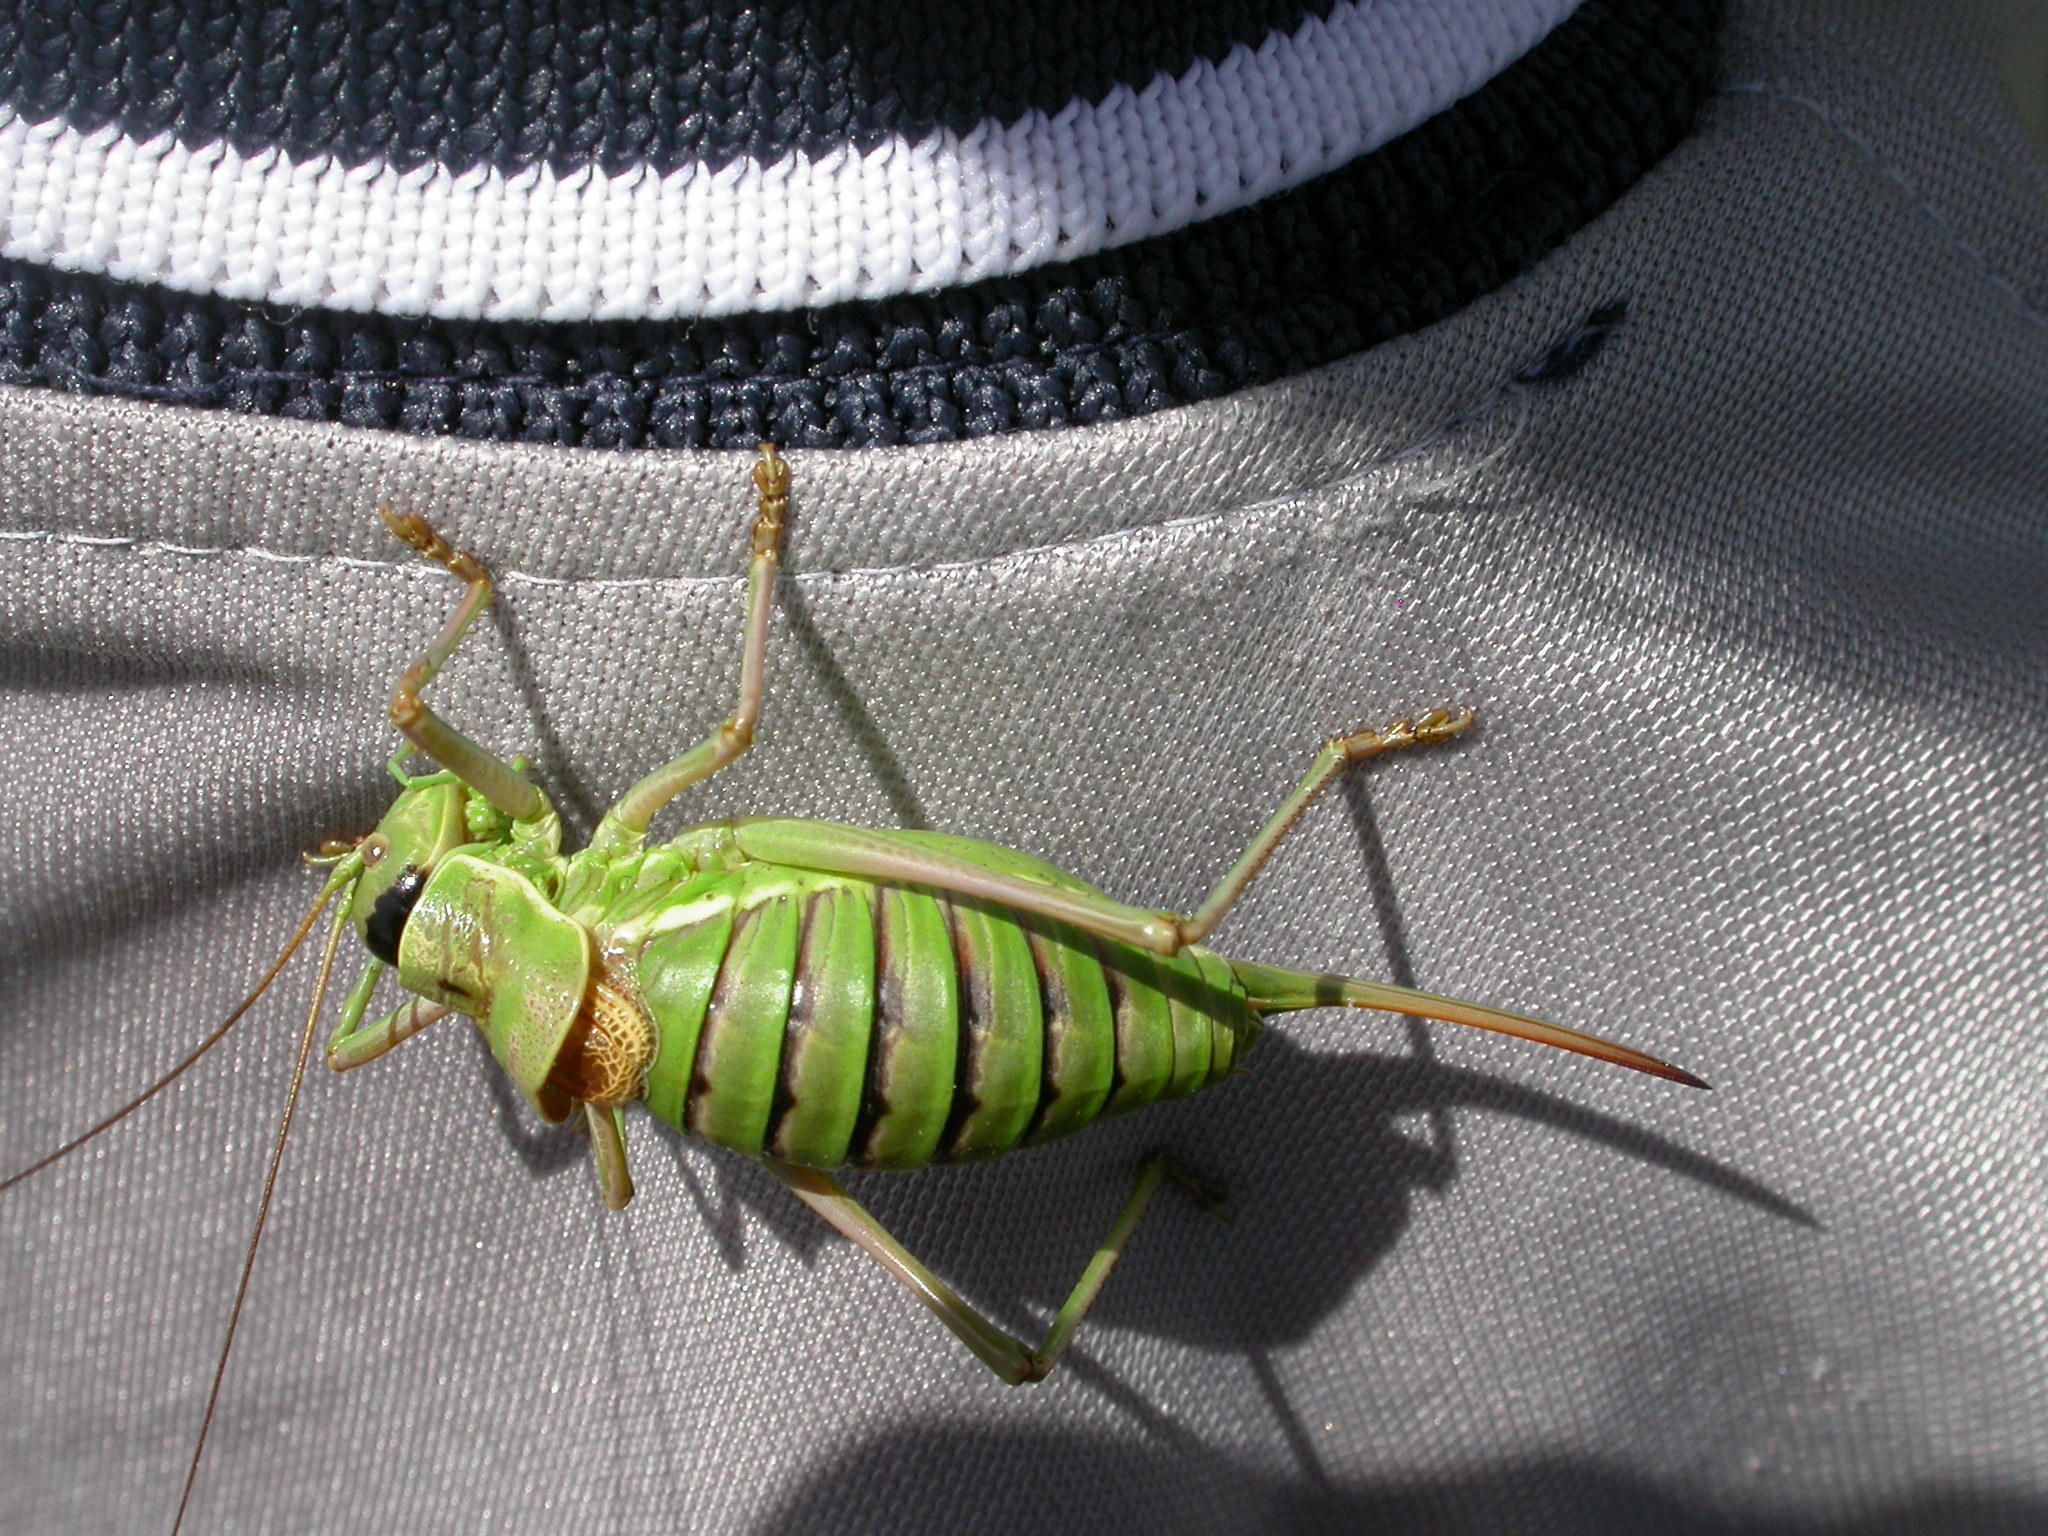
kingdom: Animalia
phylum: Arthropoda
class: Insecta
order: Orthoptera
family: Tettigoniidae
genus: Ephippiger
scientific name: Ephippiger diurnus
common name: Western saddle bush-cricket
